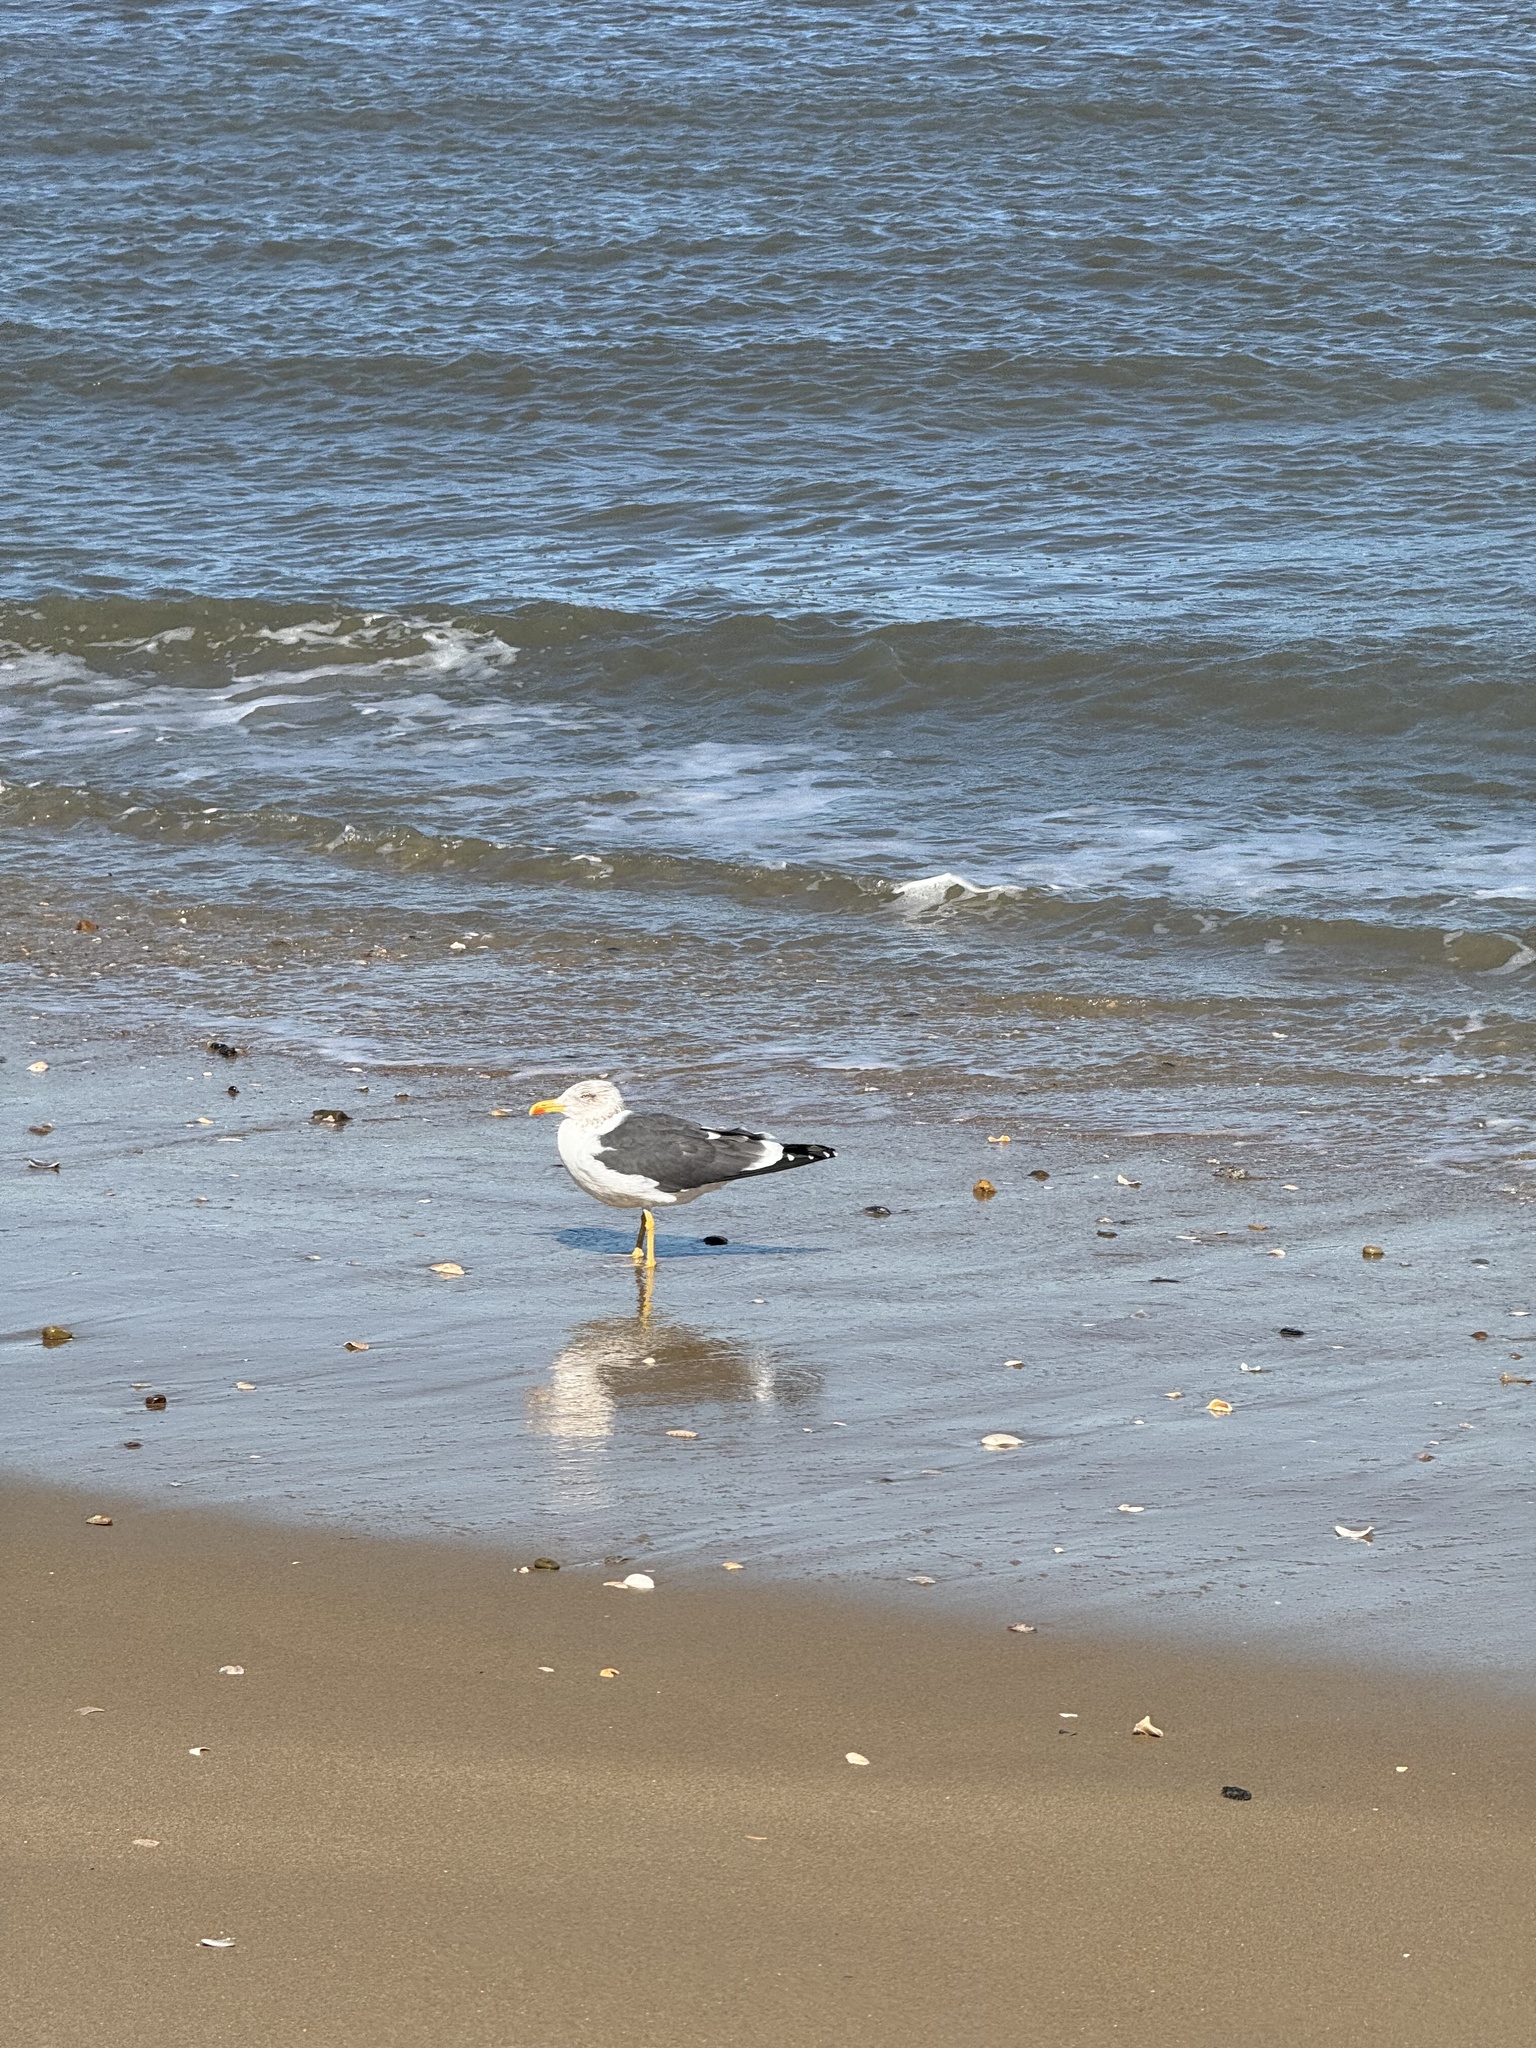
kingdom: Animalia
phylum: Chordata
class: Aves
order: Charadriiformes
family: Laridae
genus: Larus
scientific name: Larus fuscus
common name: Lesser black-backed gull
